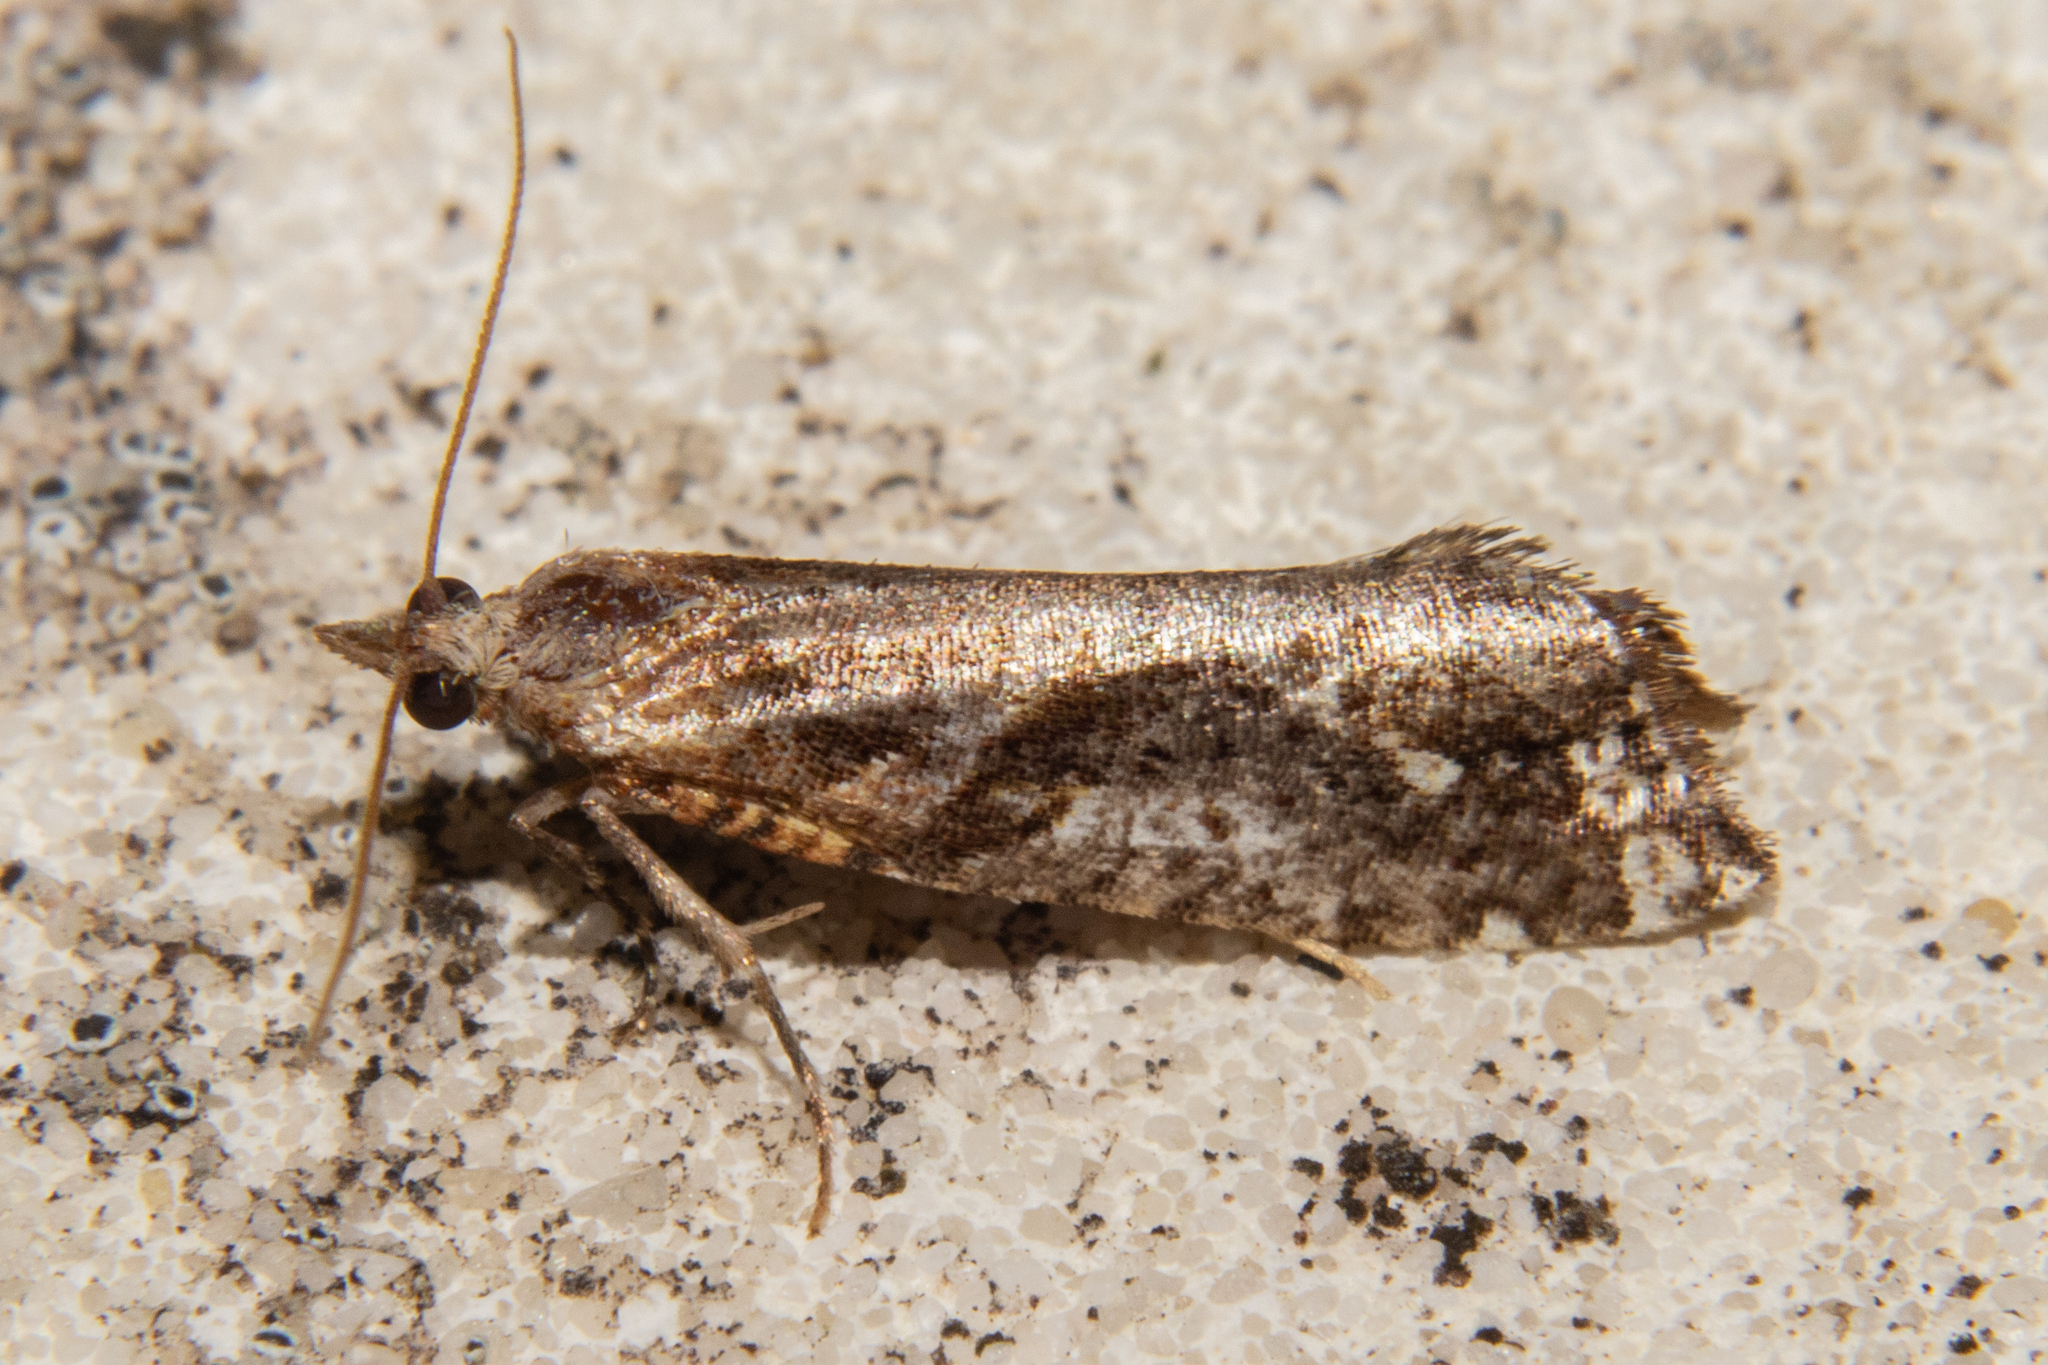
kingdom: Animalia
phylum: Arthropoda
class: Insecta
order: Lepidoptera
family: Tortricidae
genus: Pyrgotis
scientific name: Pyrgotis plagiatana
